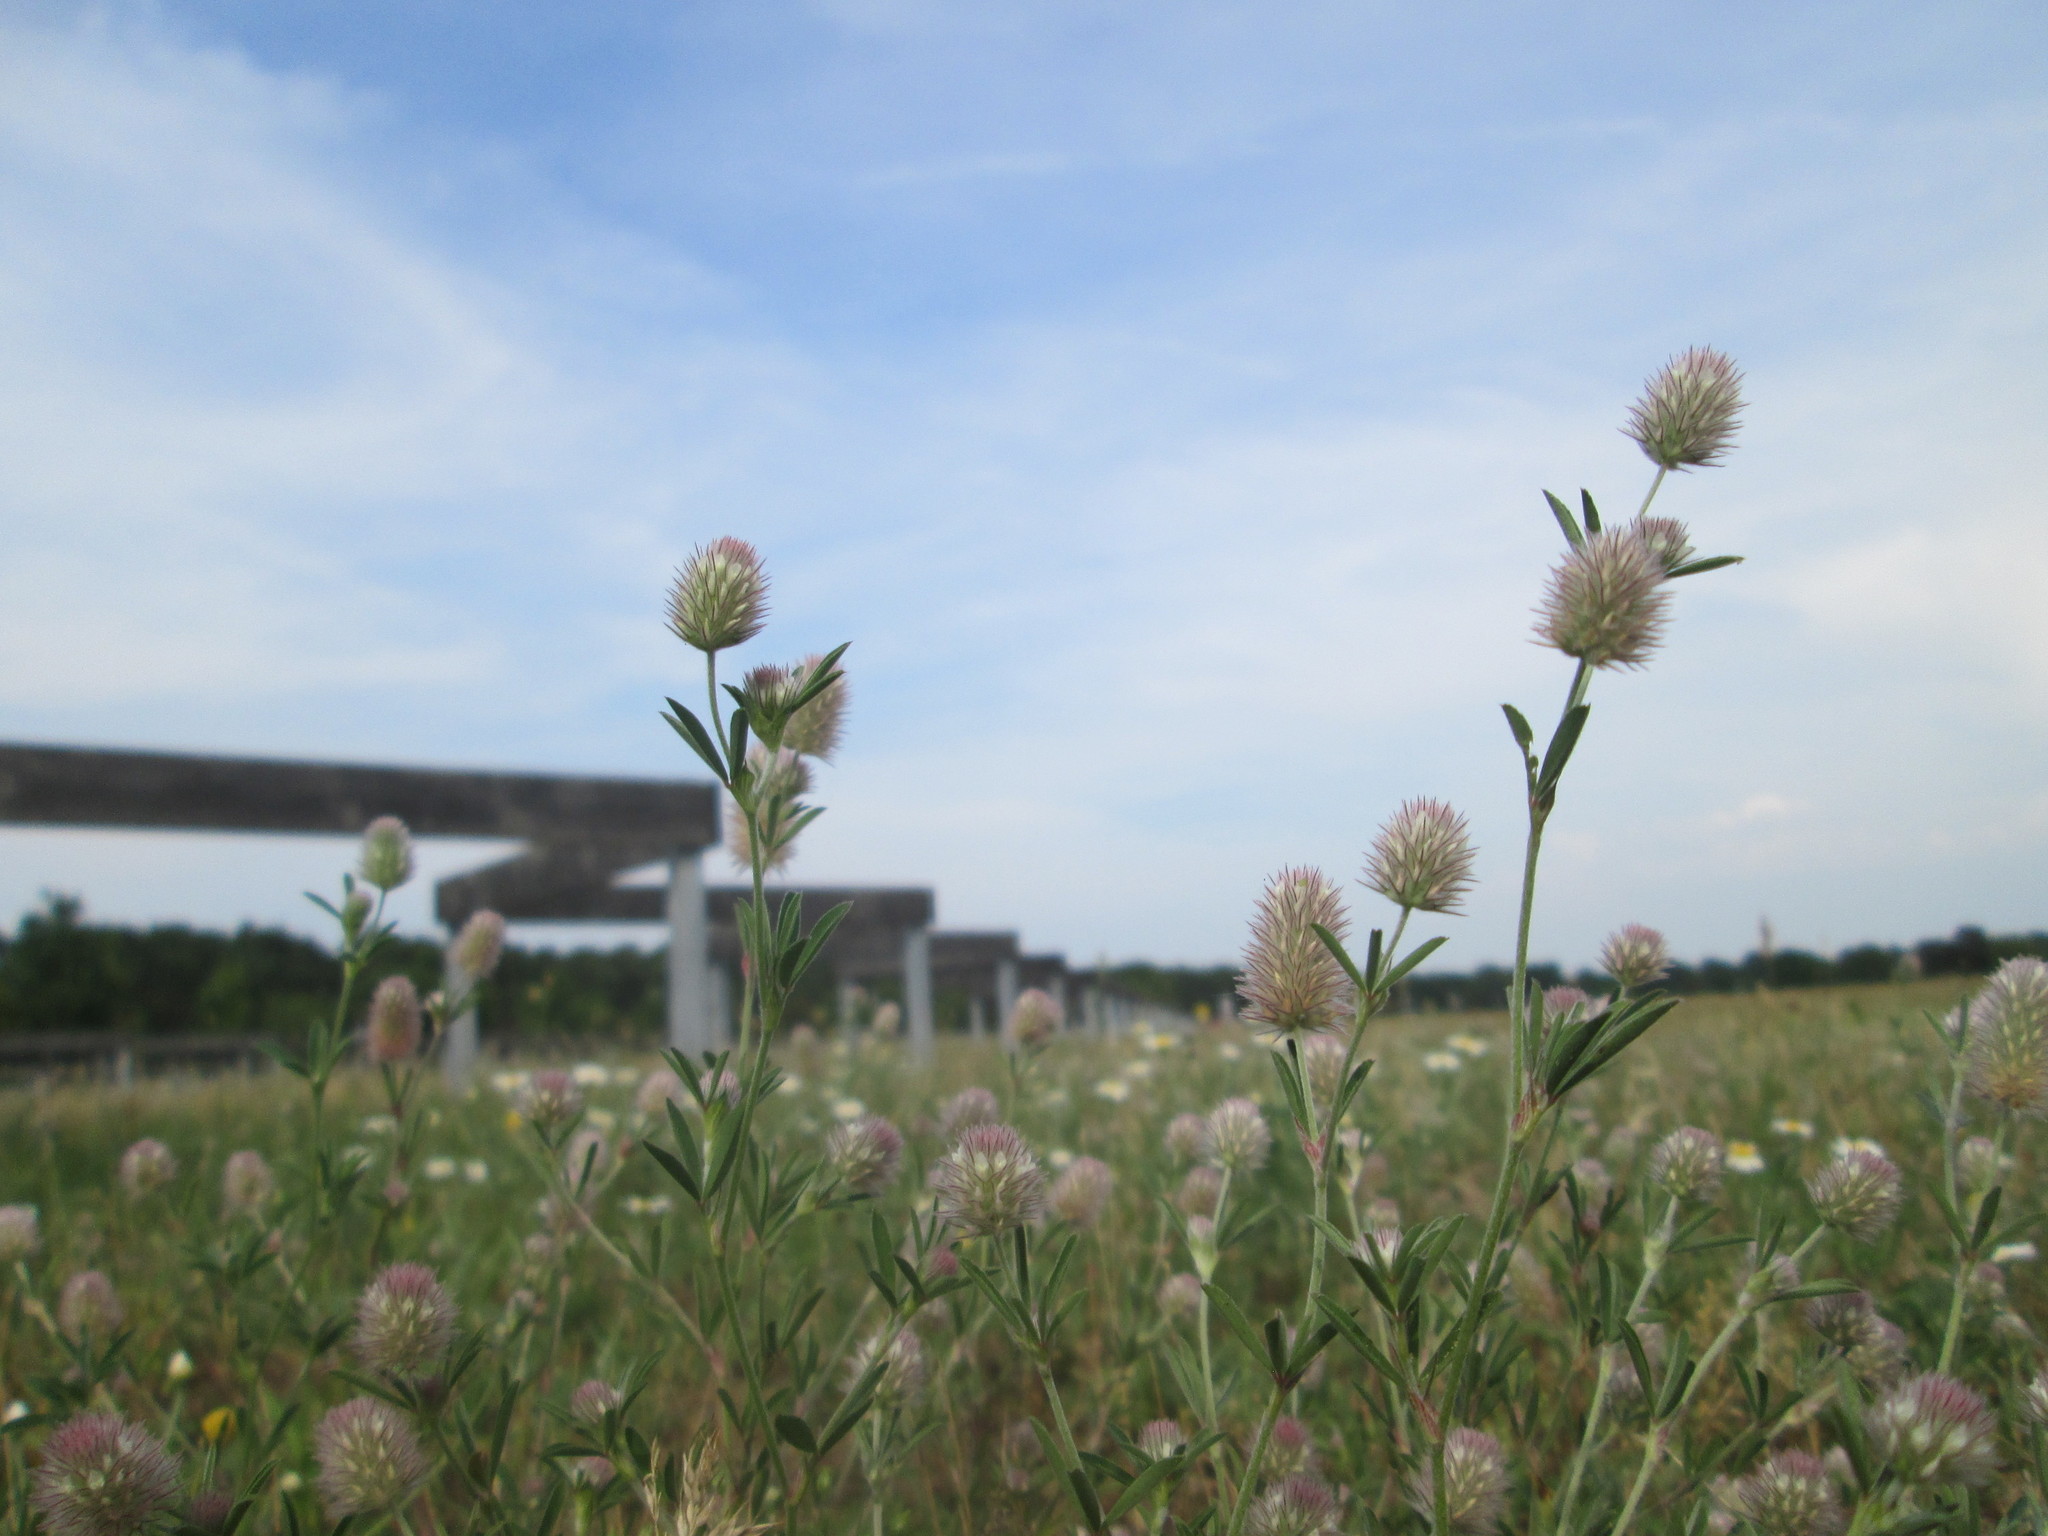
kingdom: Plantae
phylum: Tracheophyta
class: Magnoliopsida
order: Fabales
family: Fabaceae
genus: Trifolium
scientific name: Trifolium arvense
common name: Hare's-foot clover
